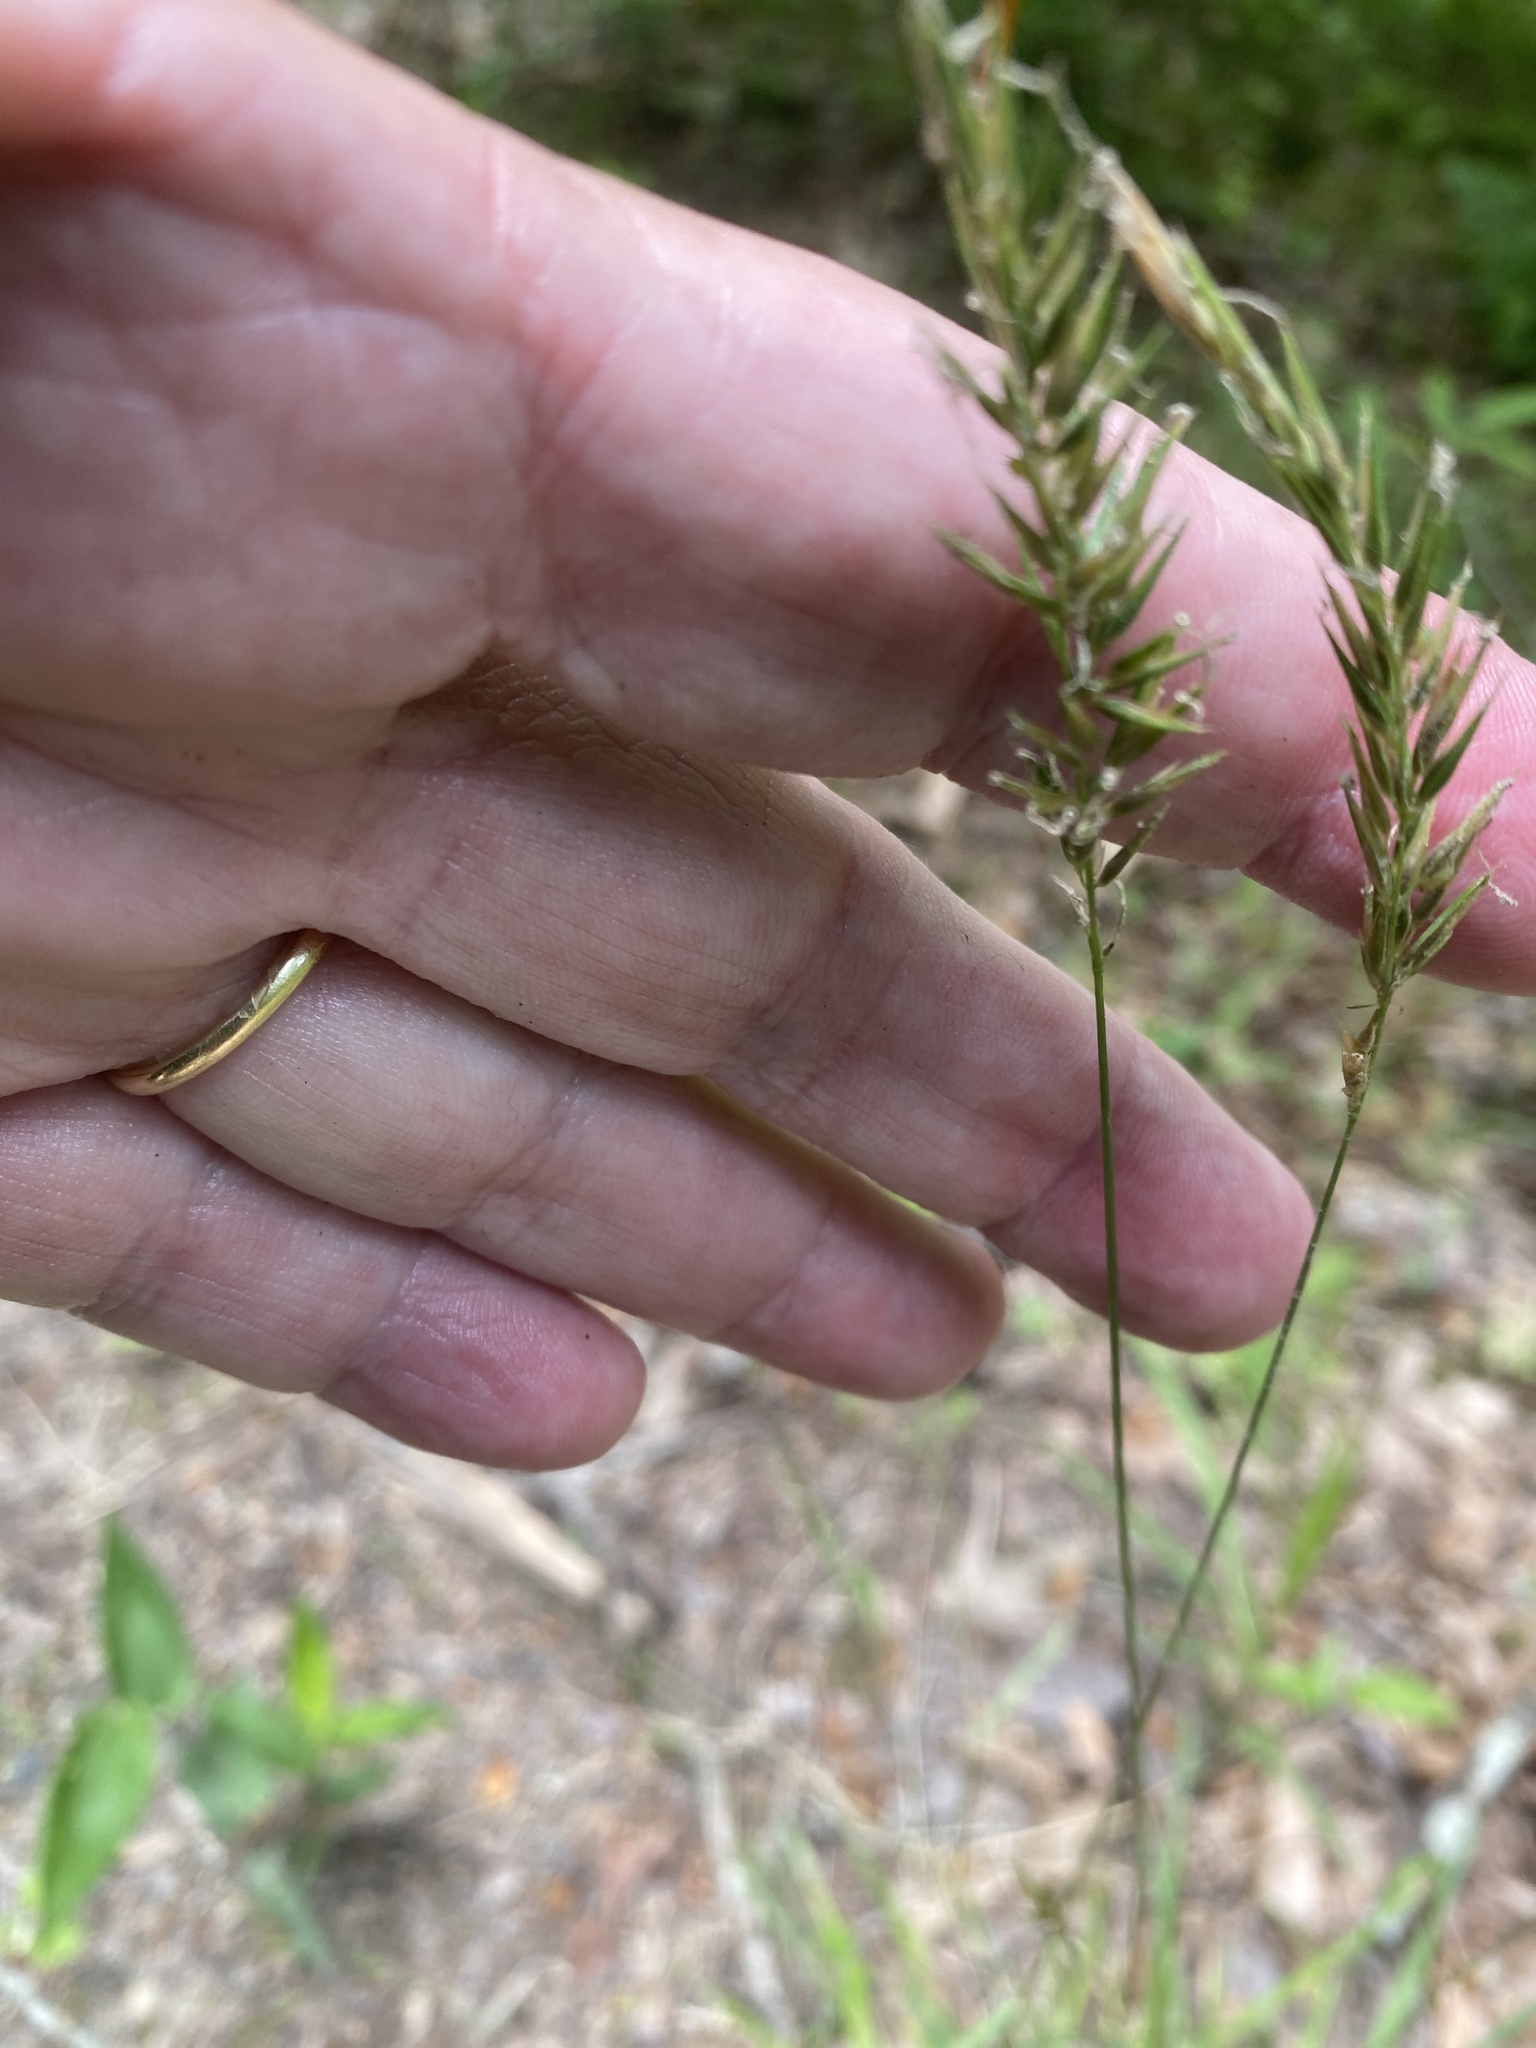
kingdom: Plantae
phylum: Tracheophyta
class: Liliopsida
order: Poales
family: Poaceae
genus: Anthoxanthum
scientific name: Anthoxanthum odoratum
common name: Sweet vernalgrass
